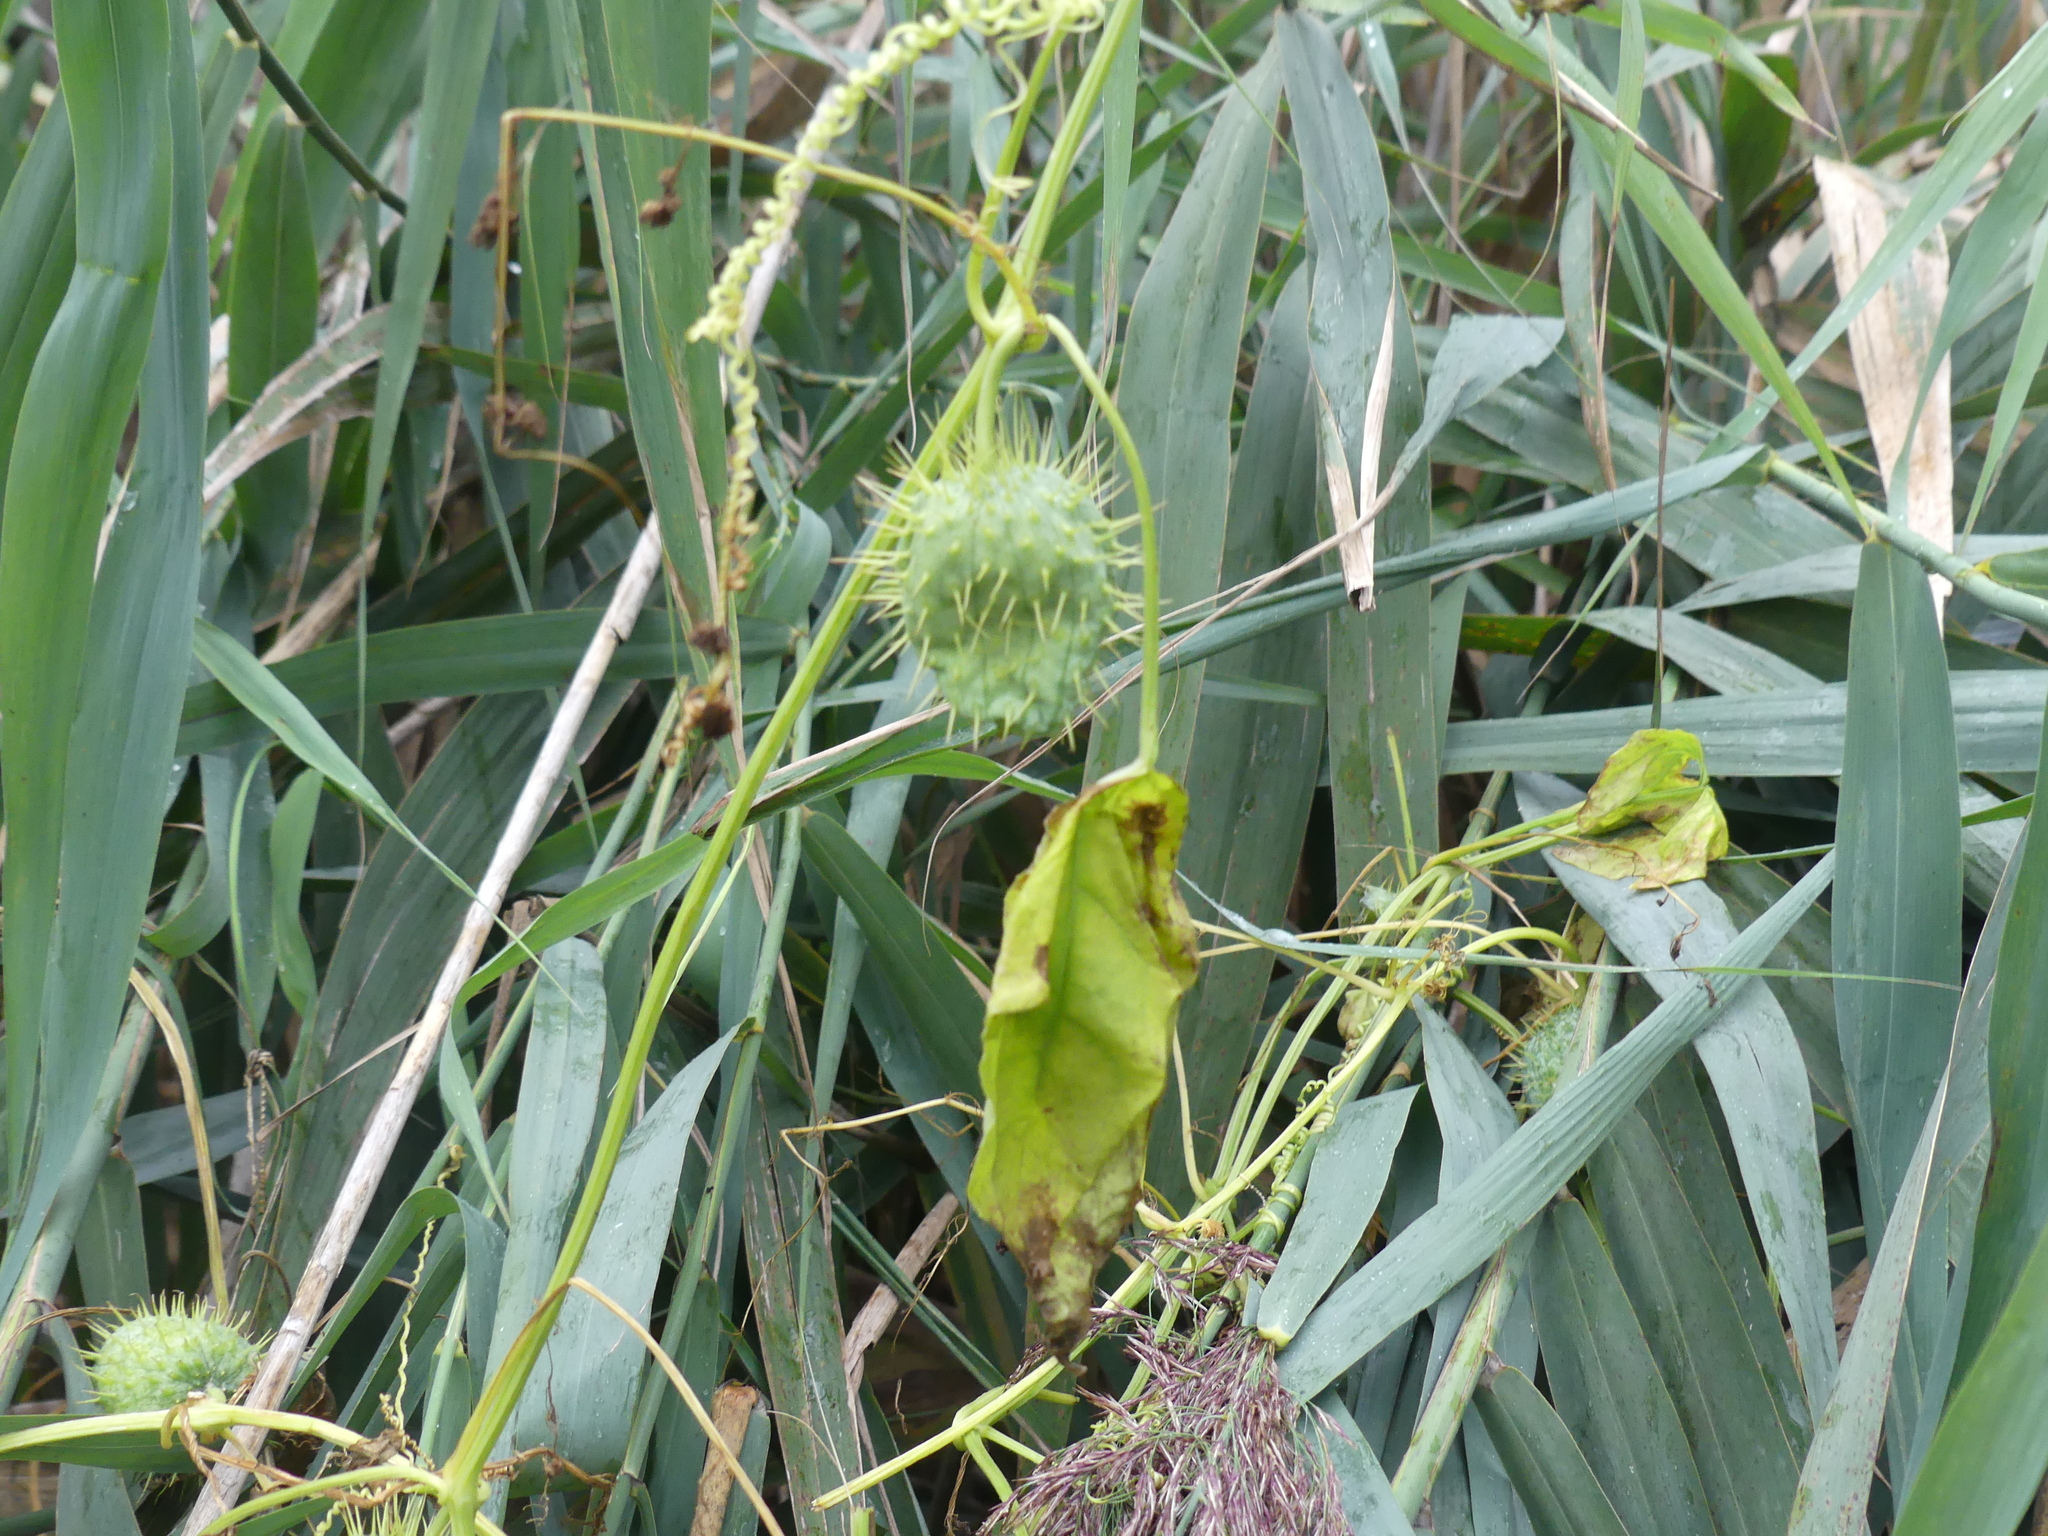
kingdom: Plantae
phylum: Tracheophyta
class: Magnoliopsida
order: Cucurbitales
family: Cucurbitaceae
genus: Echinocystis
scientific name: Echinocystis lobata
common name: Wild cucumber
